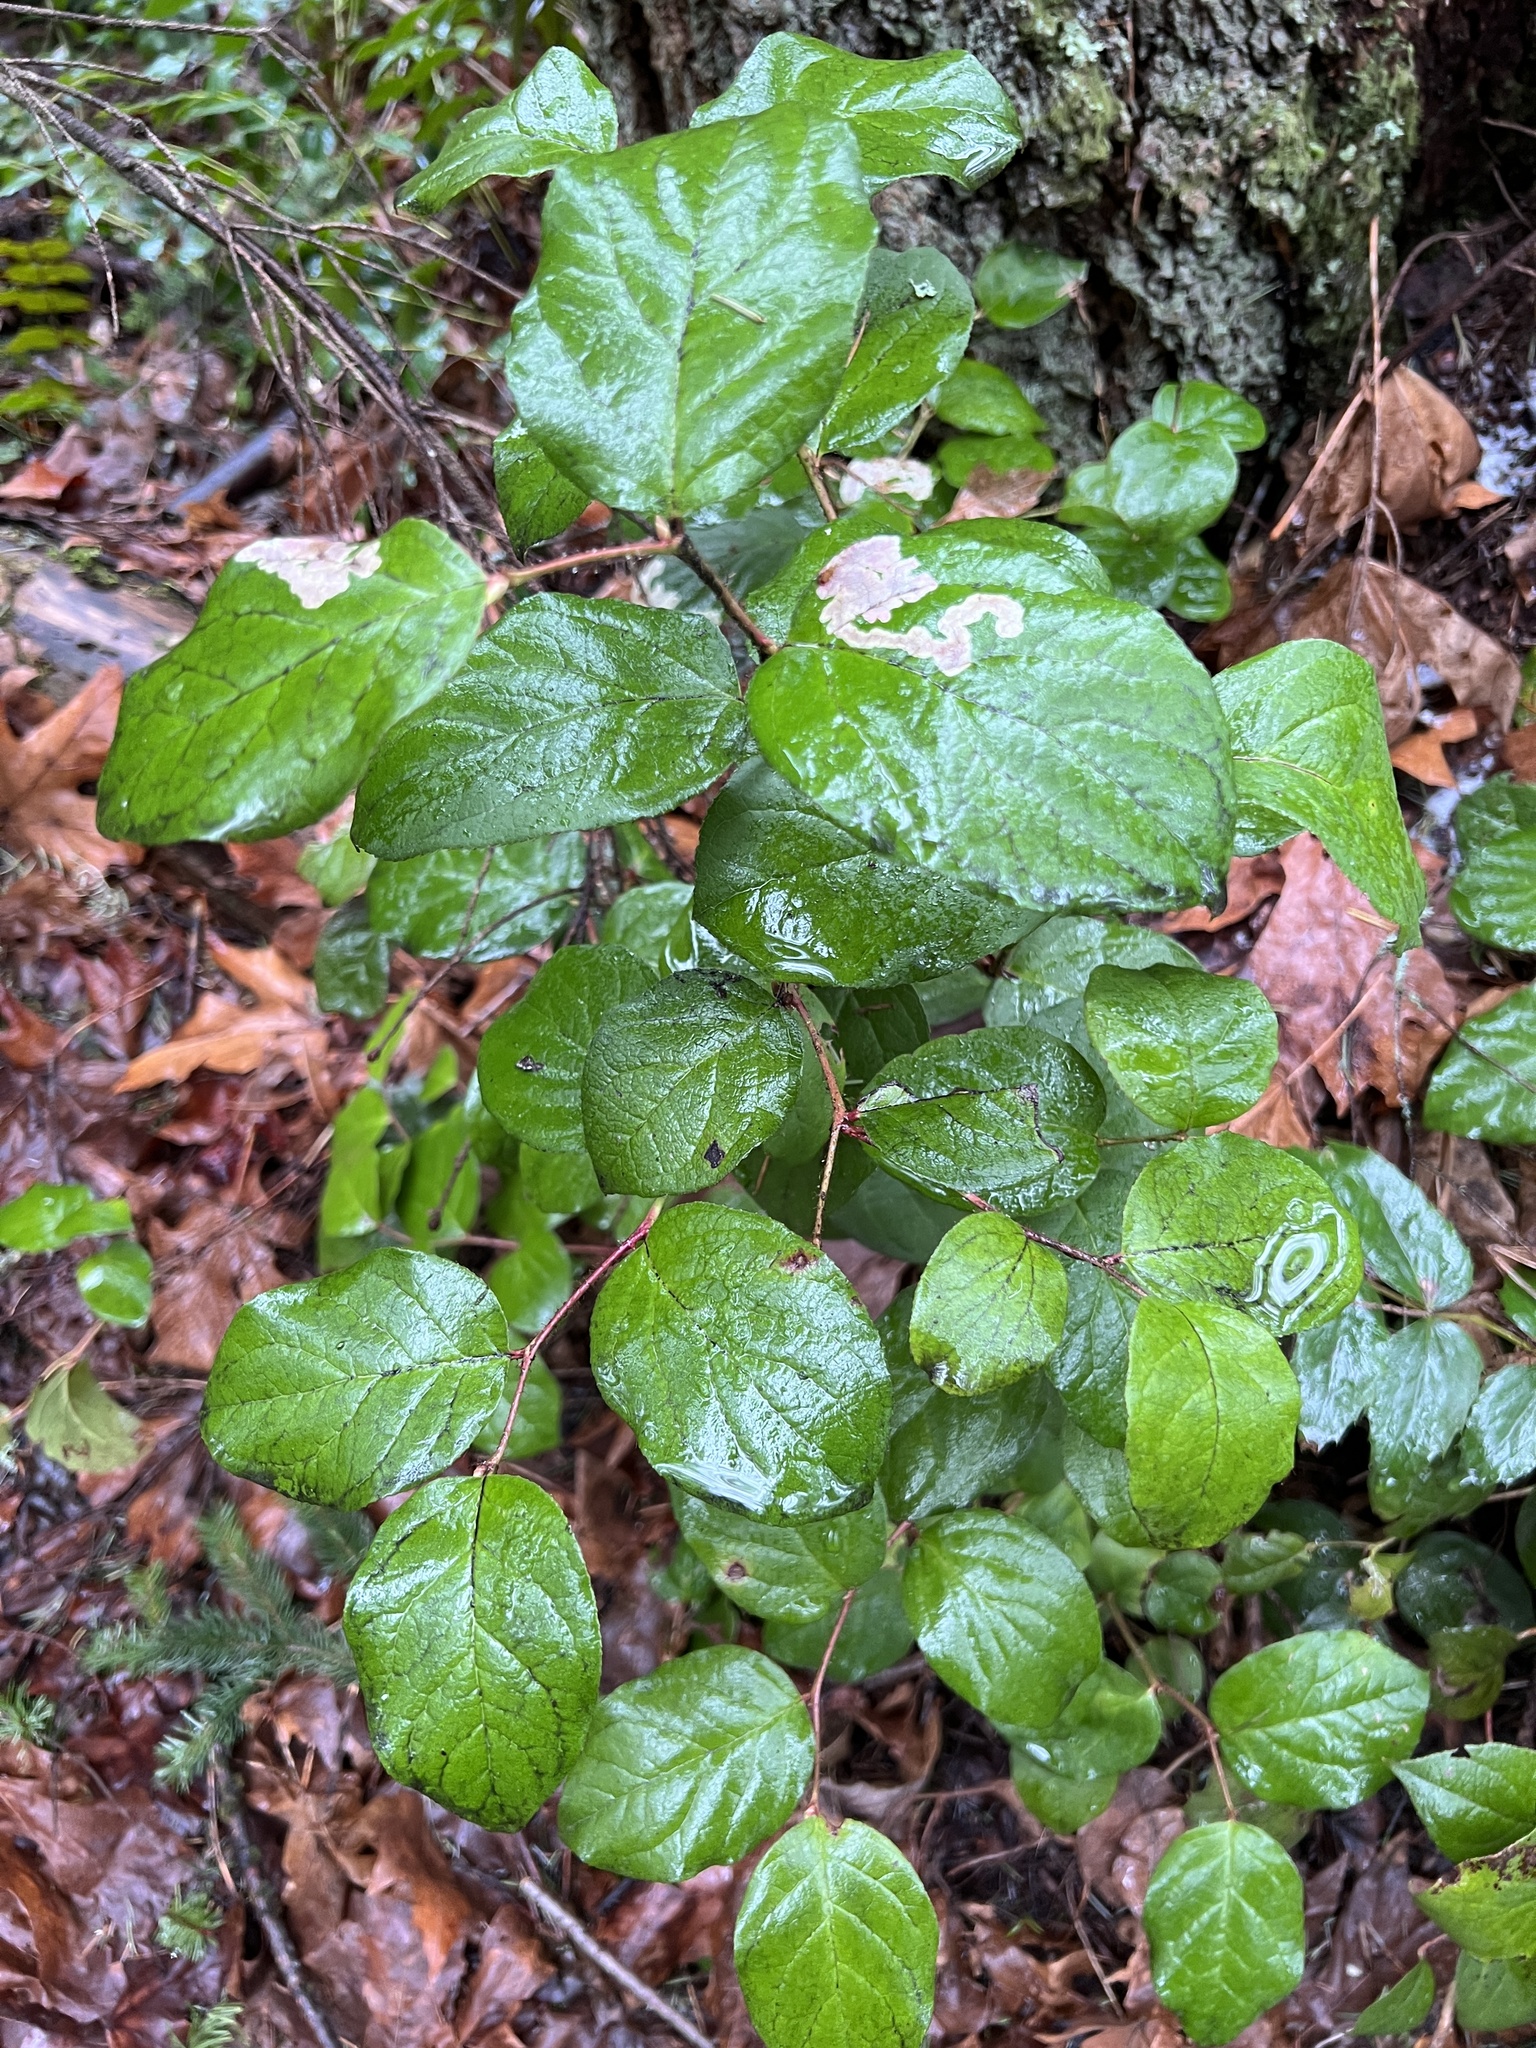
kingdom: Plantae
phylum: Tracheophyta
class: Magnoliopsida
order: Ericales
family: Ericaceae
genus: Gaultheria
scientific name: Gaultheria shallon
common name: Shallon
